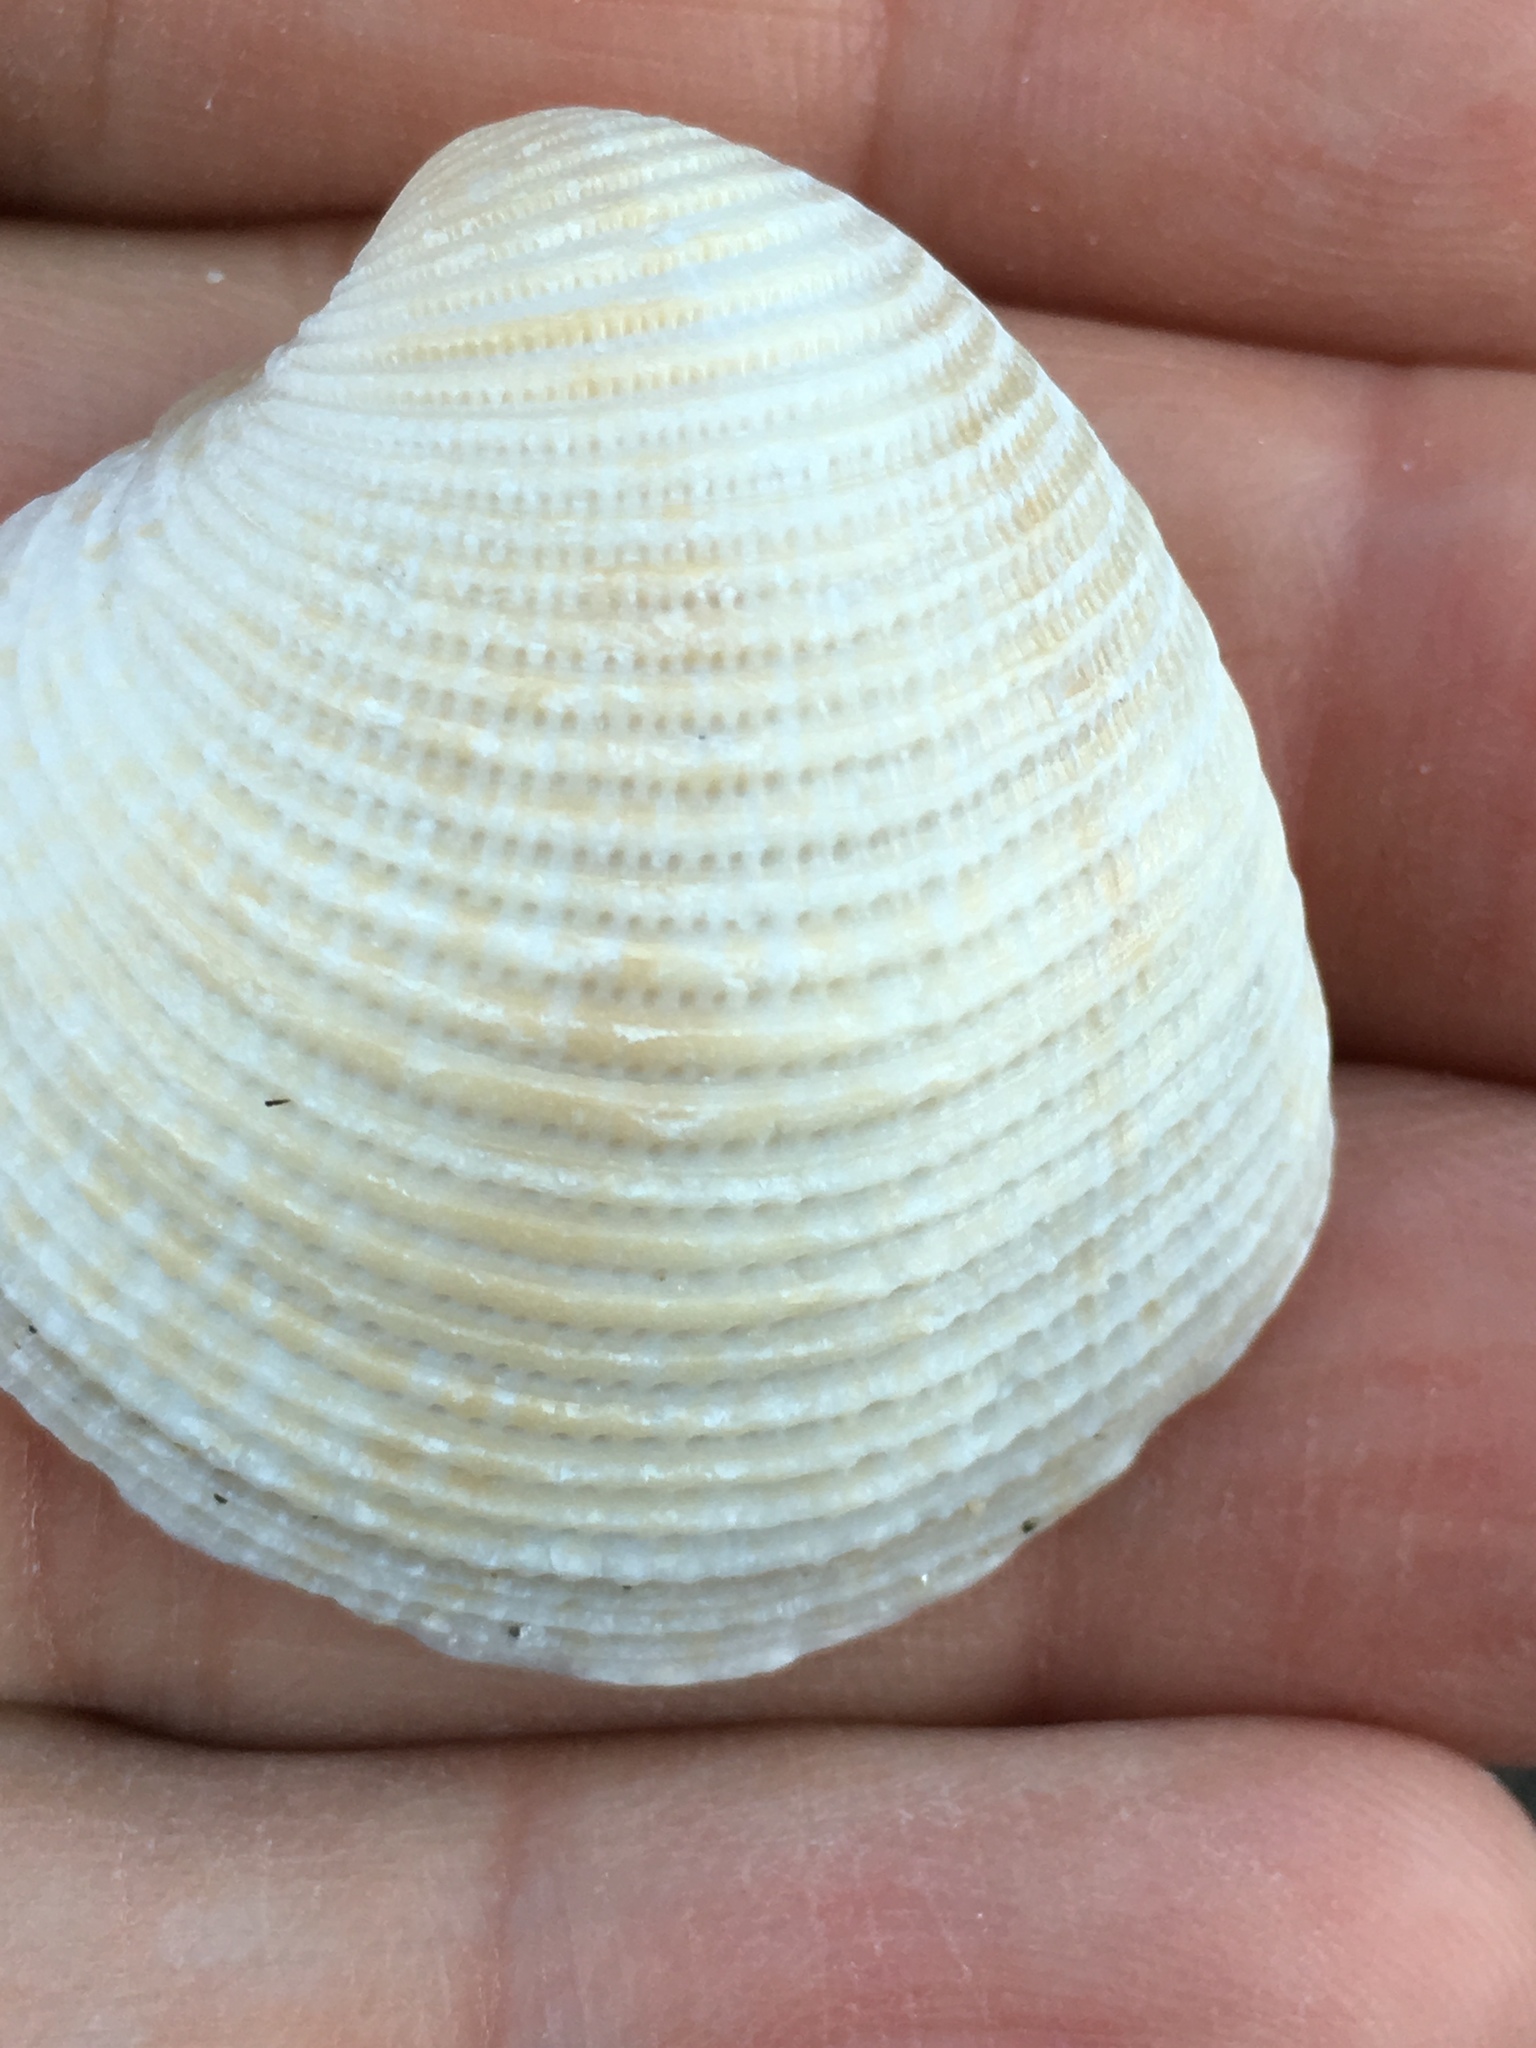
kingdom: Animalia
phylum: Mollusca
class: Bivalvia
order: Venerida
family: Veneridae
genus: Chionopsis
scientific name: Chionopsis intapurpurea
